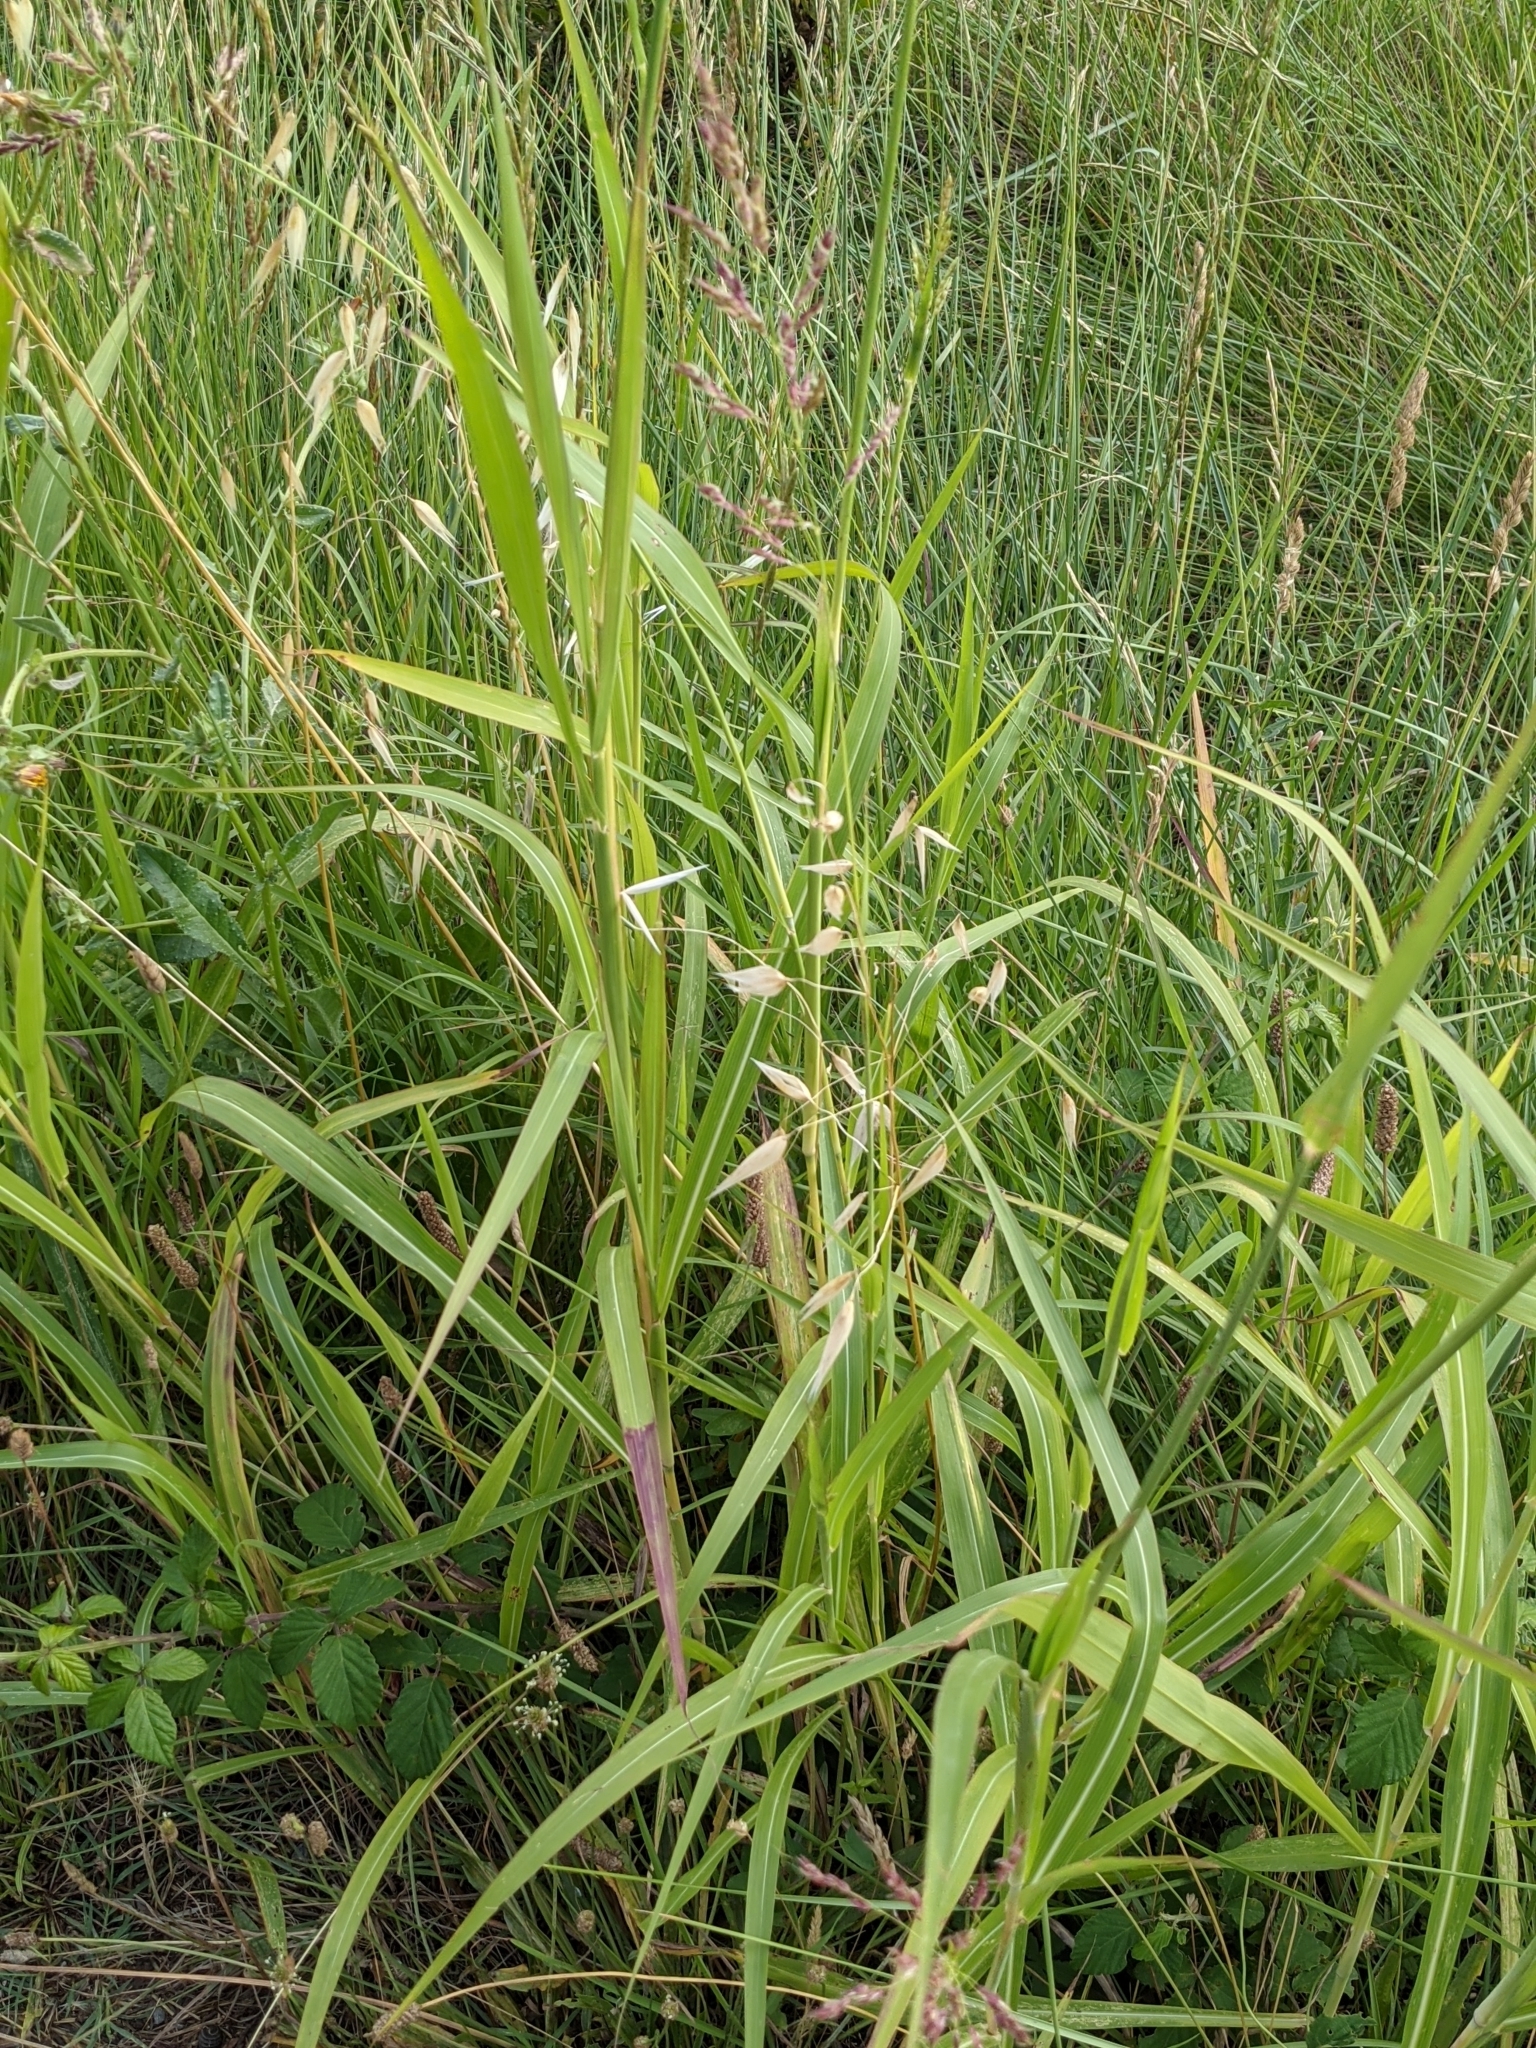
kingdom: Plantae
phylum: Tracheophyta
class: Liliopsida
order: Poales
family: Poaceae
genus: Sorghum
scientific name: Sorghum halepense
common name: Johnson-grass
